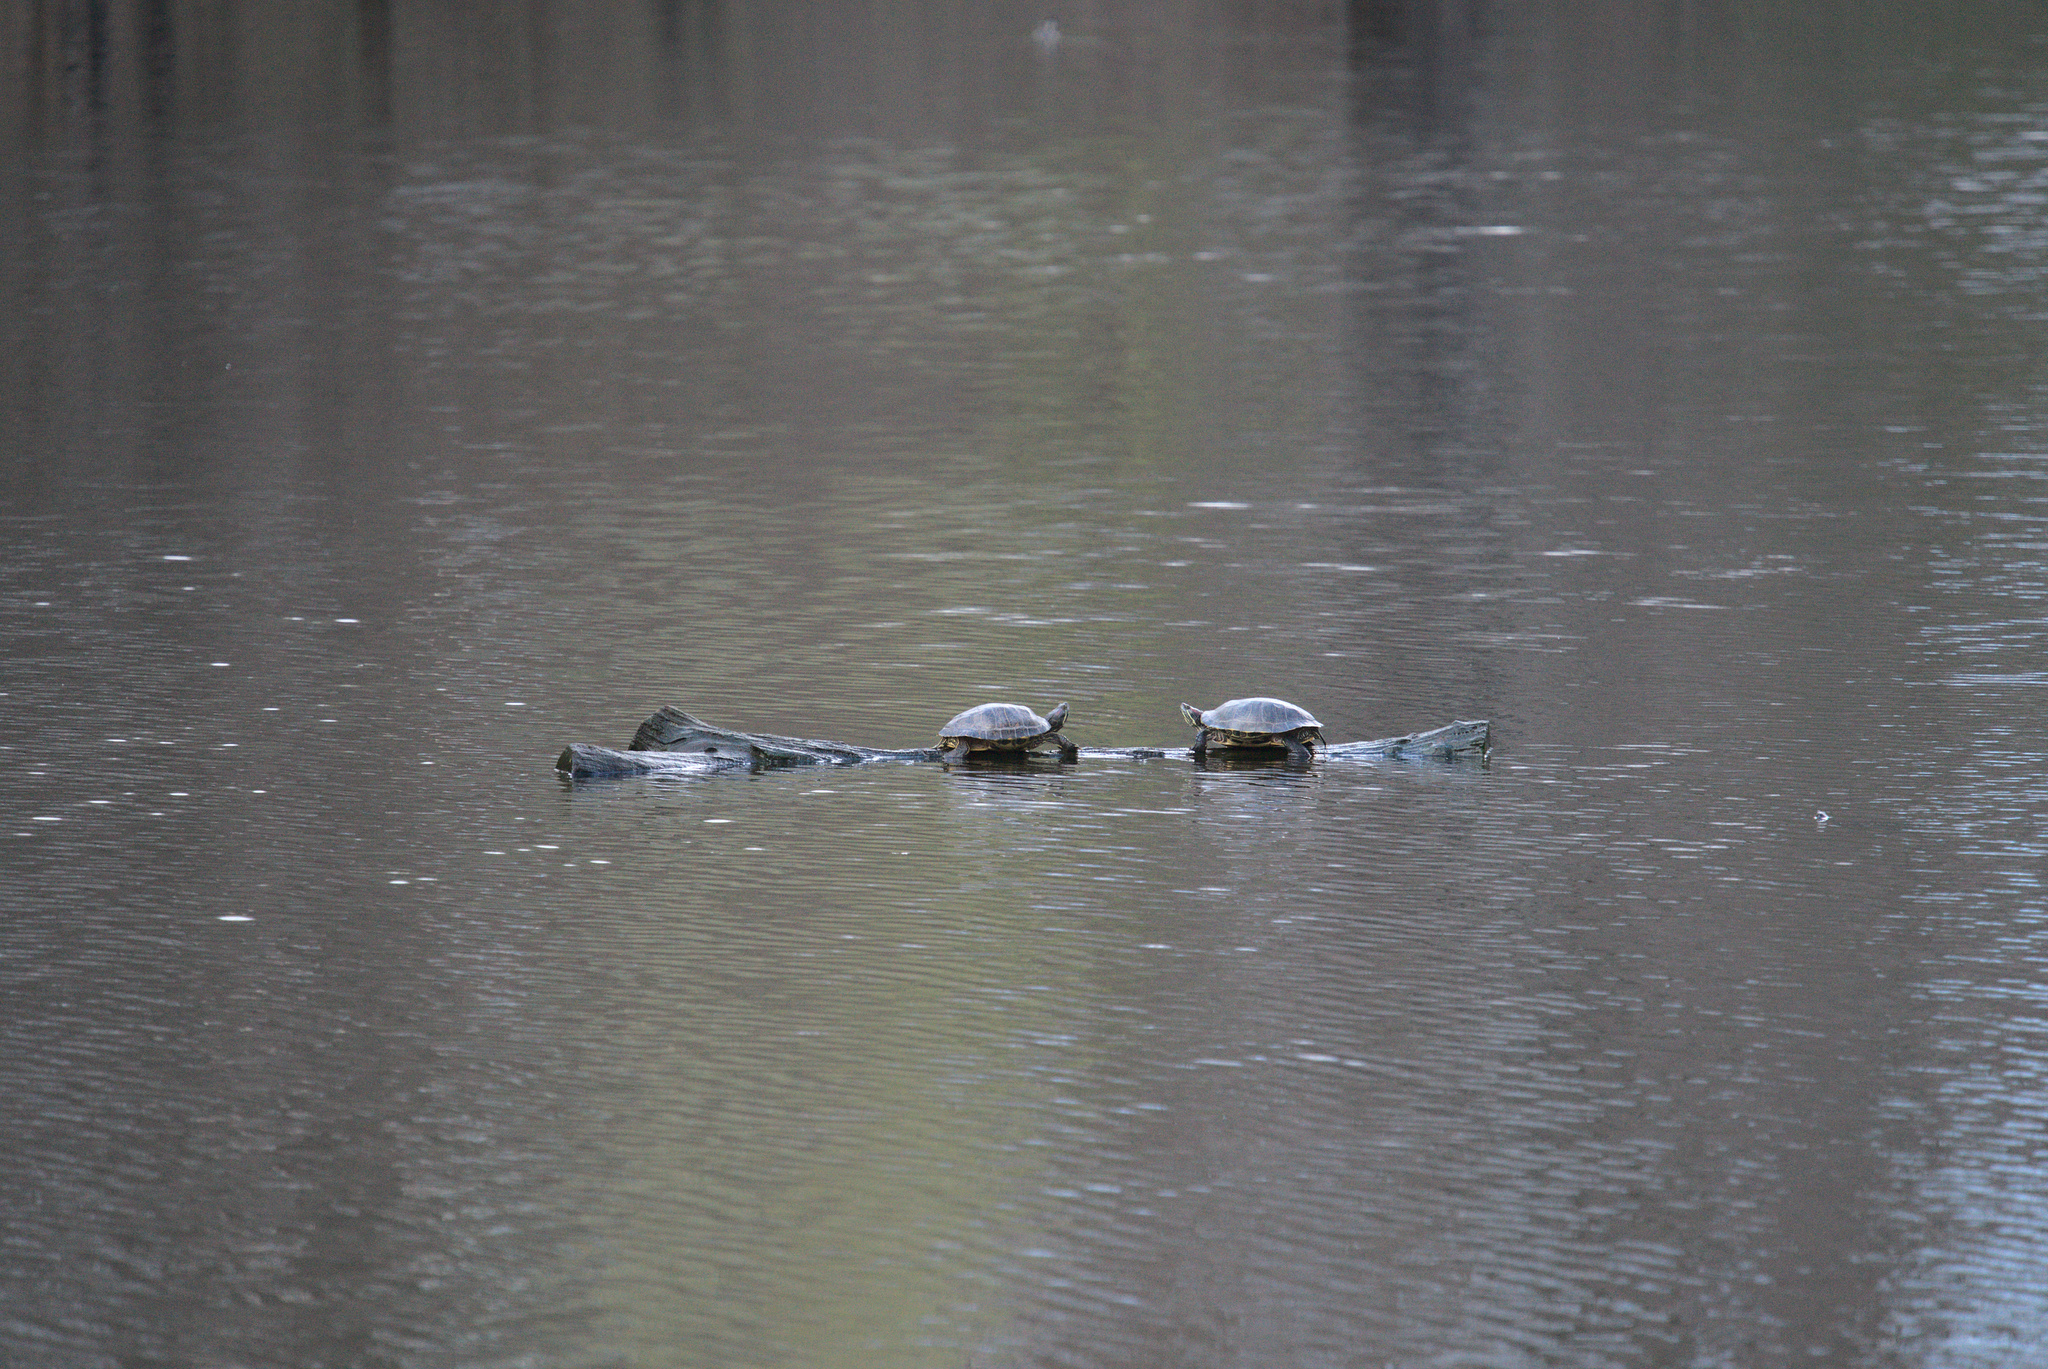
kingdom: Animalia
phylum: Chordata
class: Testudines
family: Emydidae
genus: Trachemys
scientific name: Trachemys scripta
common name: Slider
